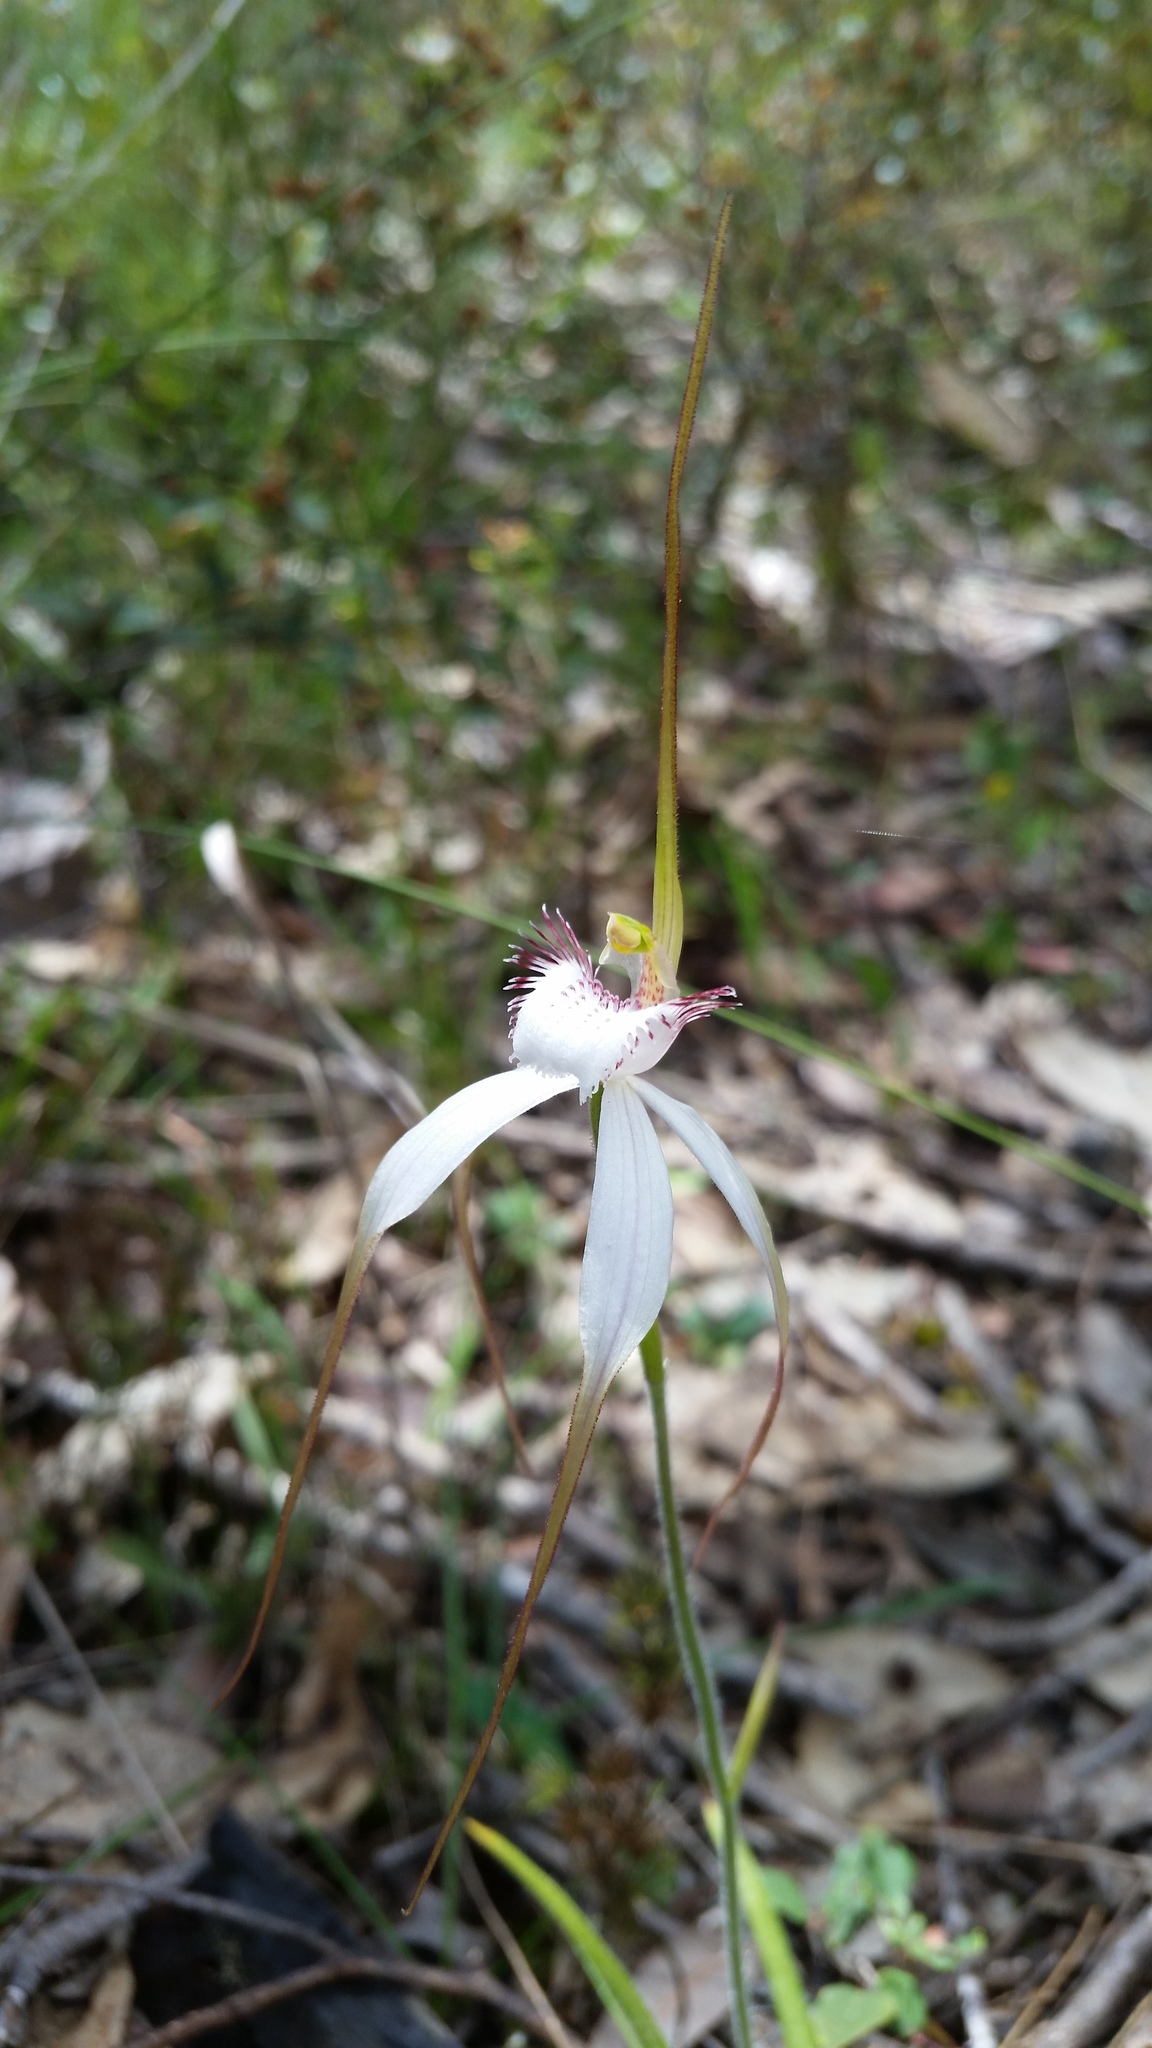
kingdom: Plantae
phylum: Tracheophyta
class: Liliopsida
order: Asparagales
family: Orchidaceae
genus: Caladenia
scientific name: Caladenia longicauda
